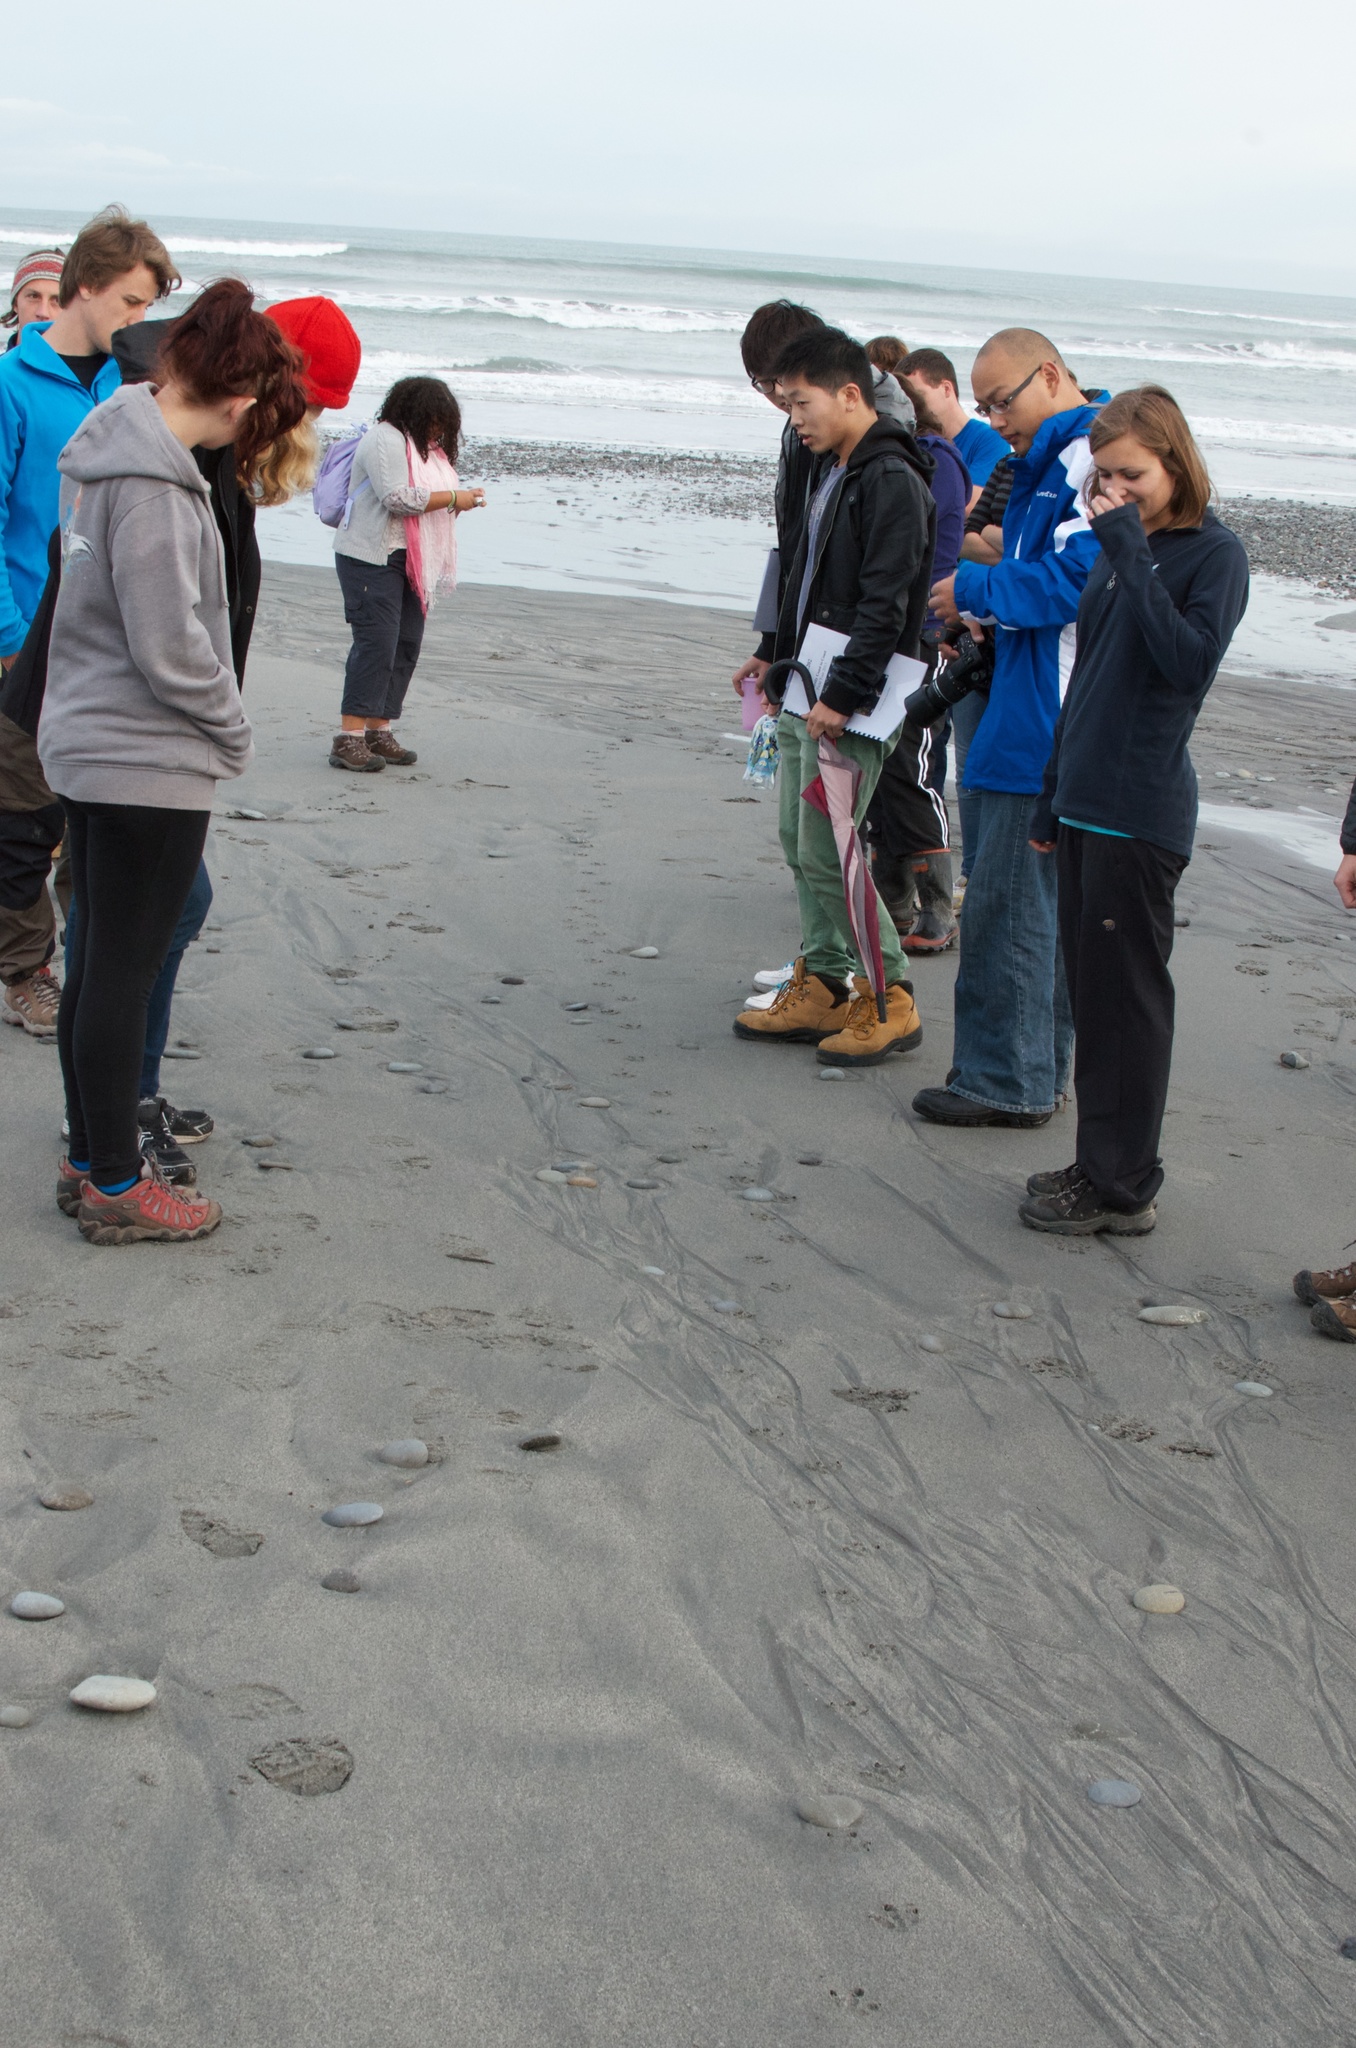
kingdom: Animalia
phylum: Chordata
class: Aves
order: Sphenisciformes
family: Spheniscidae
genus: Eudyptula
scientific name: Eudyptula minor
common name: Little penguin
